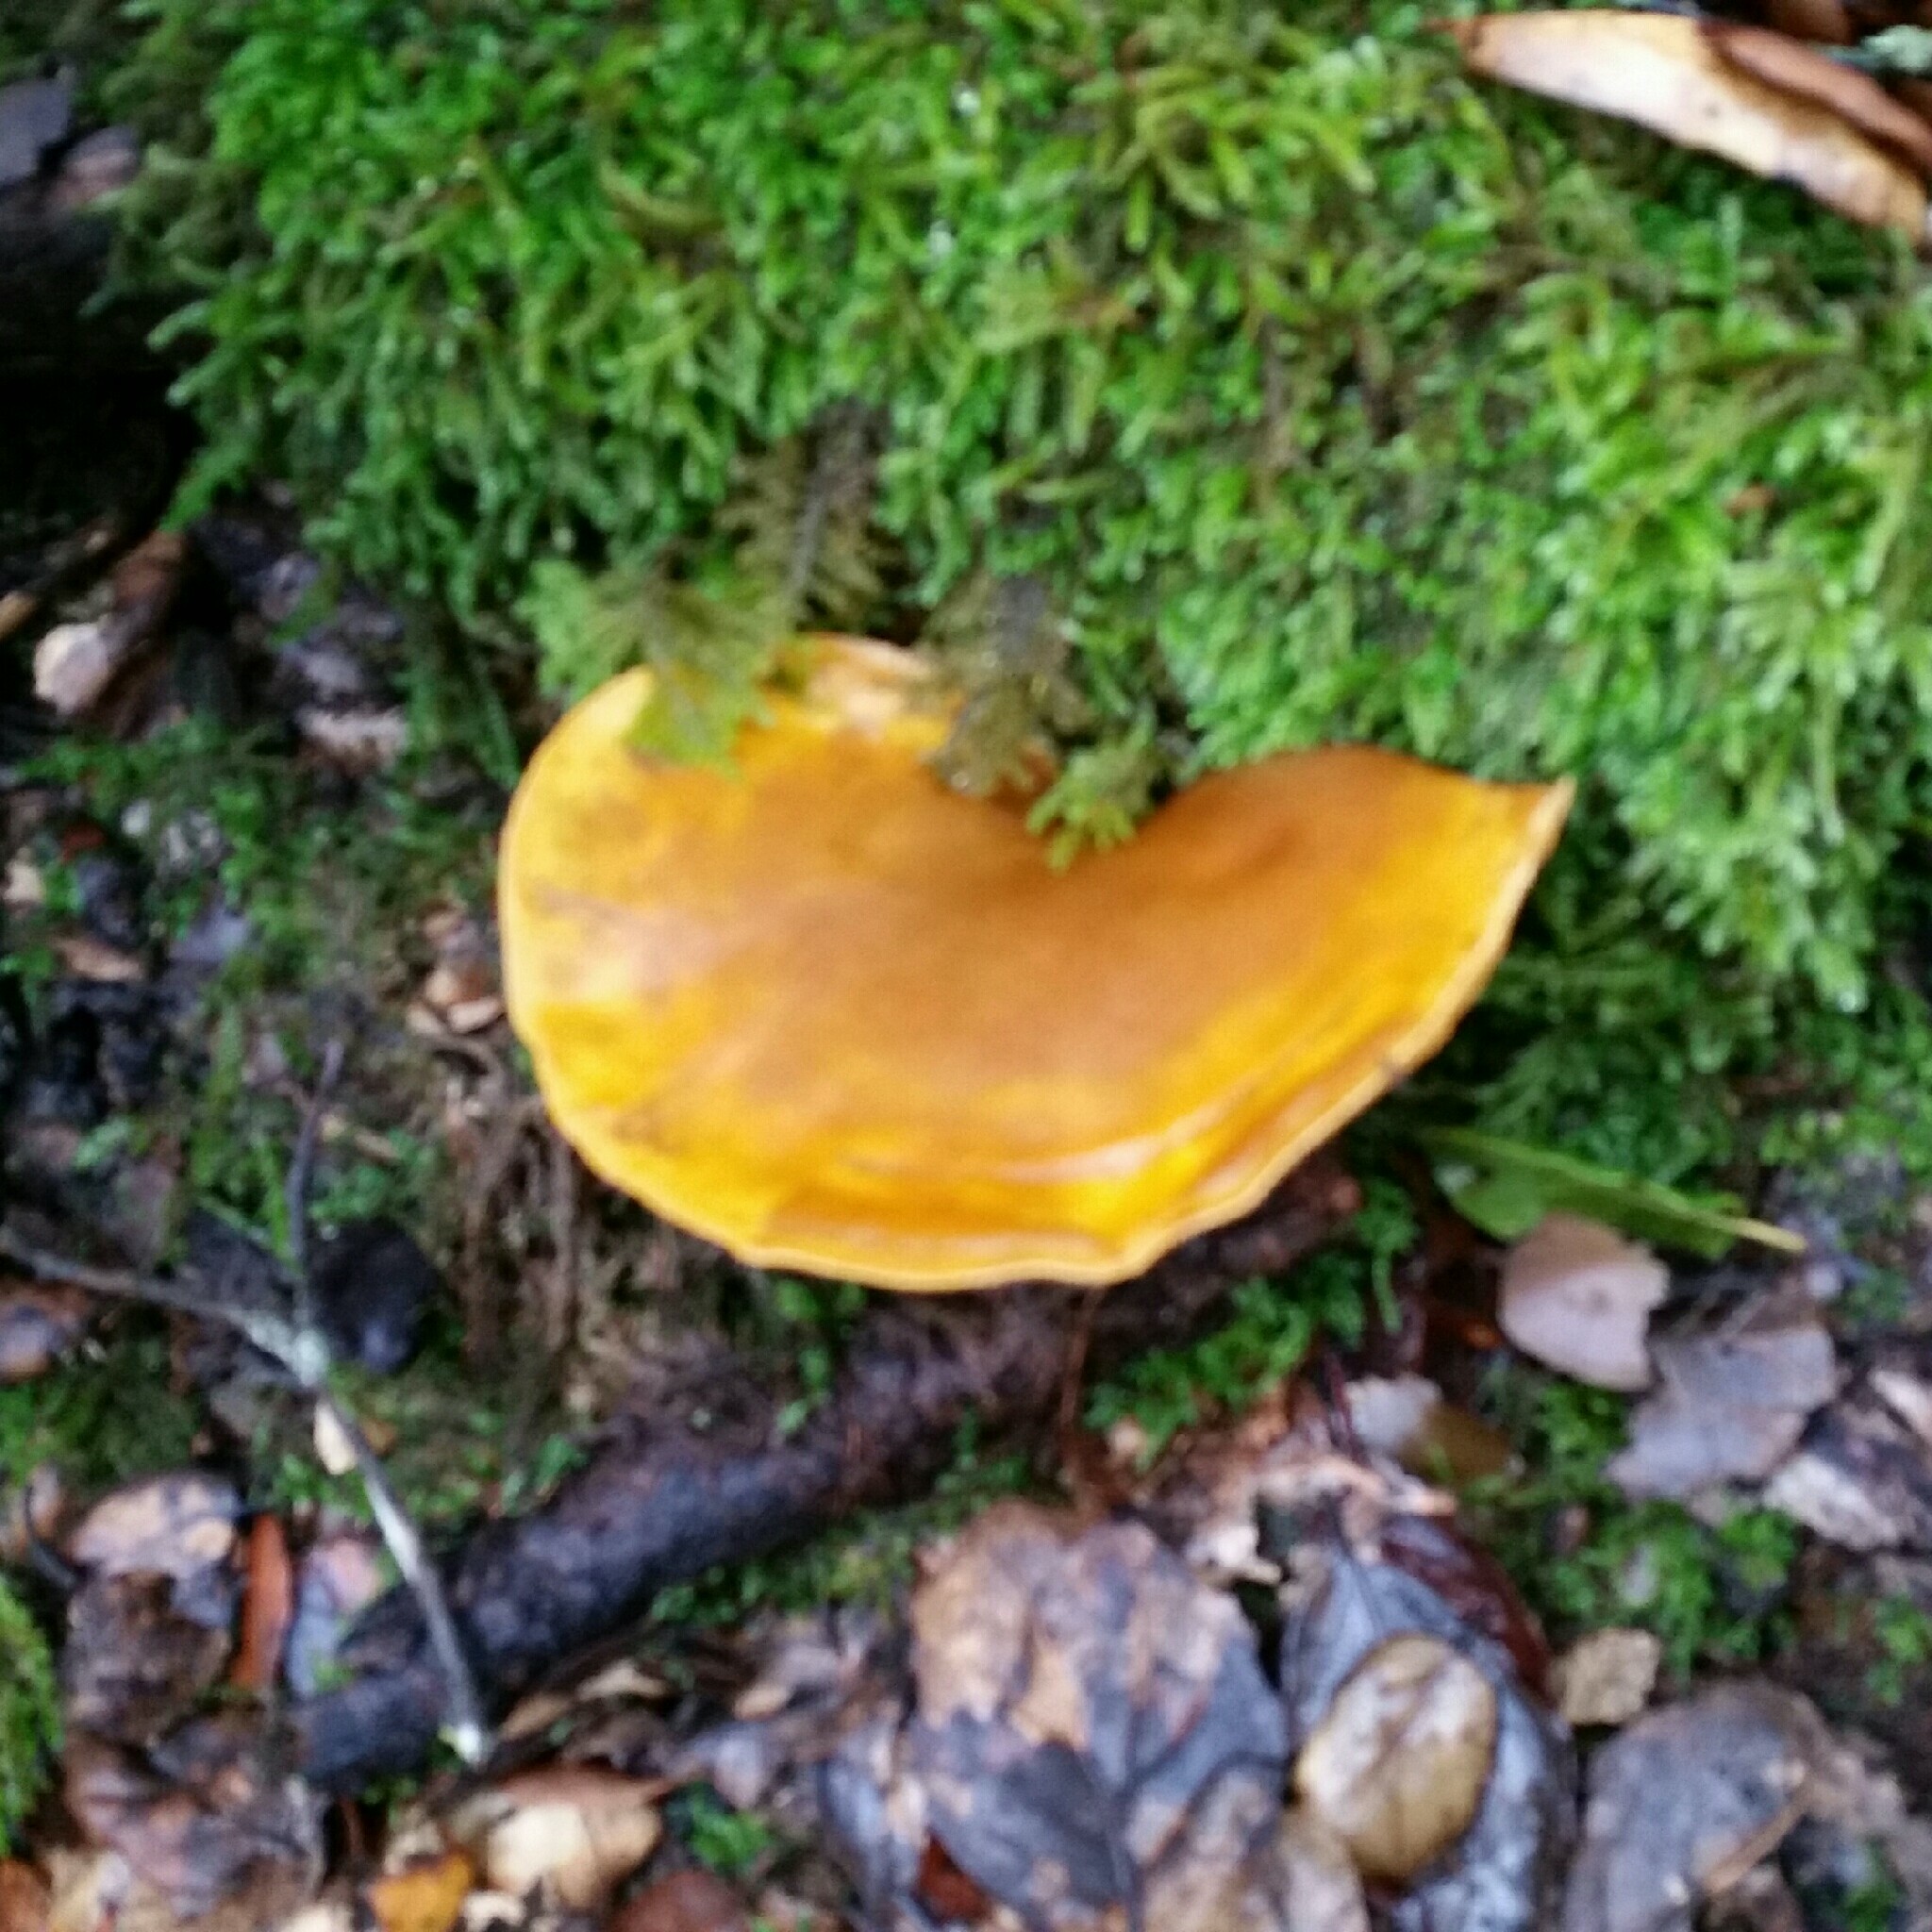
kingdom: Fungi
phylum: Basidiomycota
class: Agaricomycetes
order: Agaricales
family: Omphalotaceae
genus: Omphalotus
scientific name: Omphalotus olivascens
